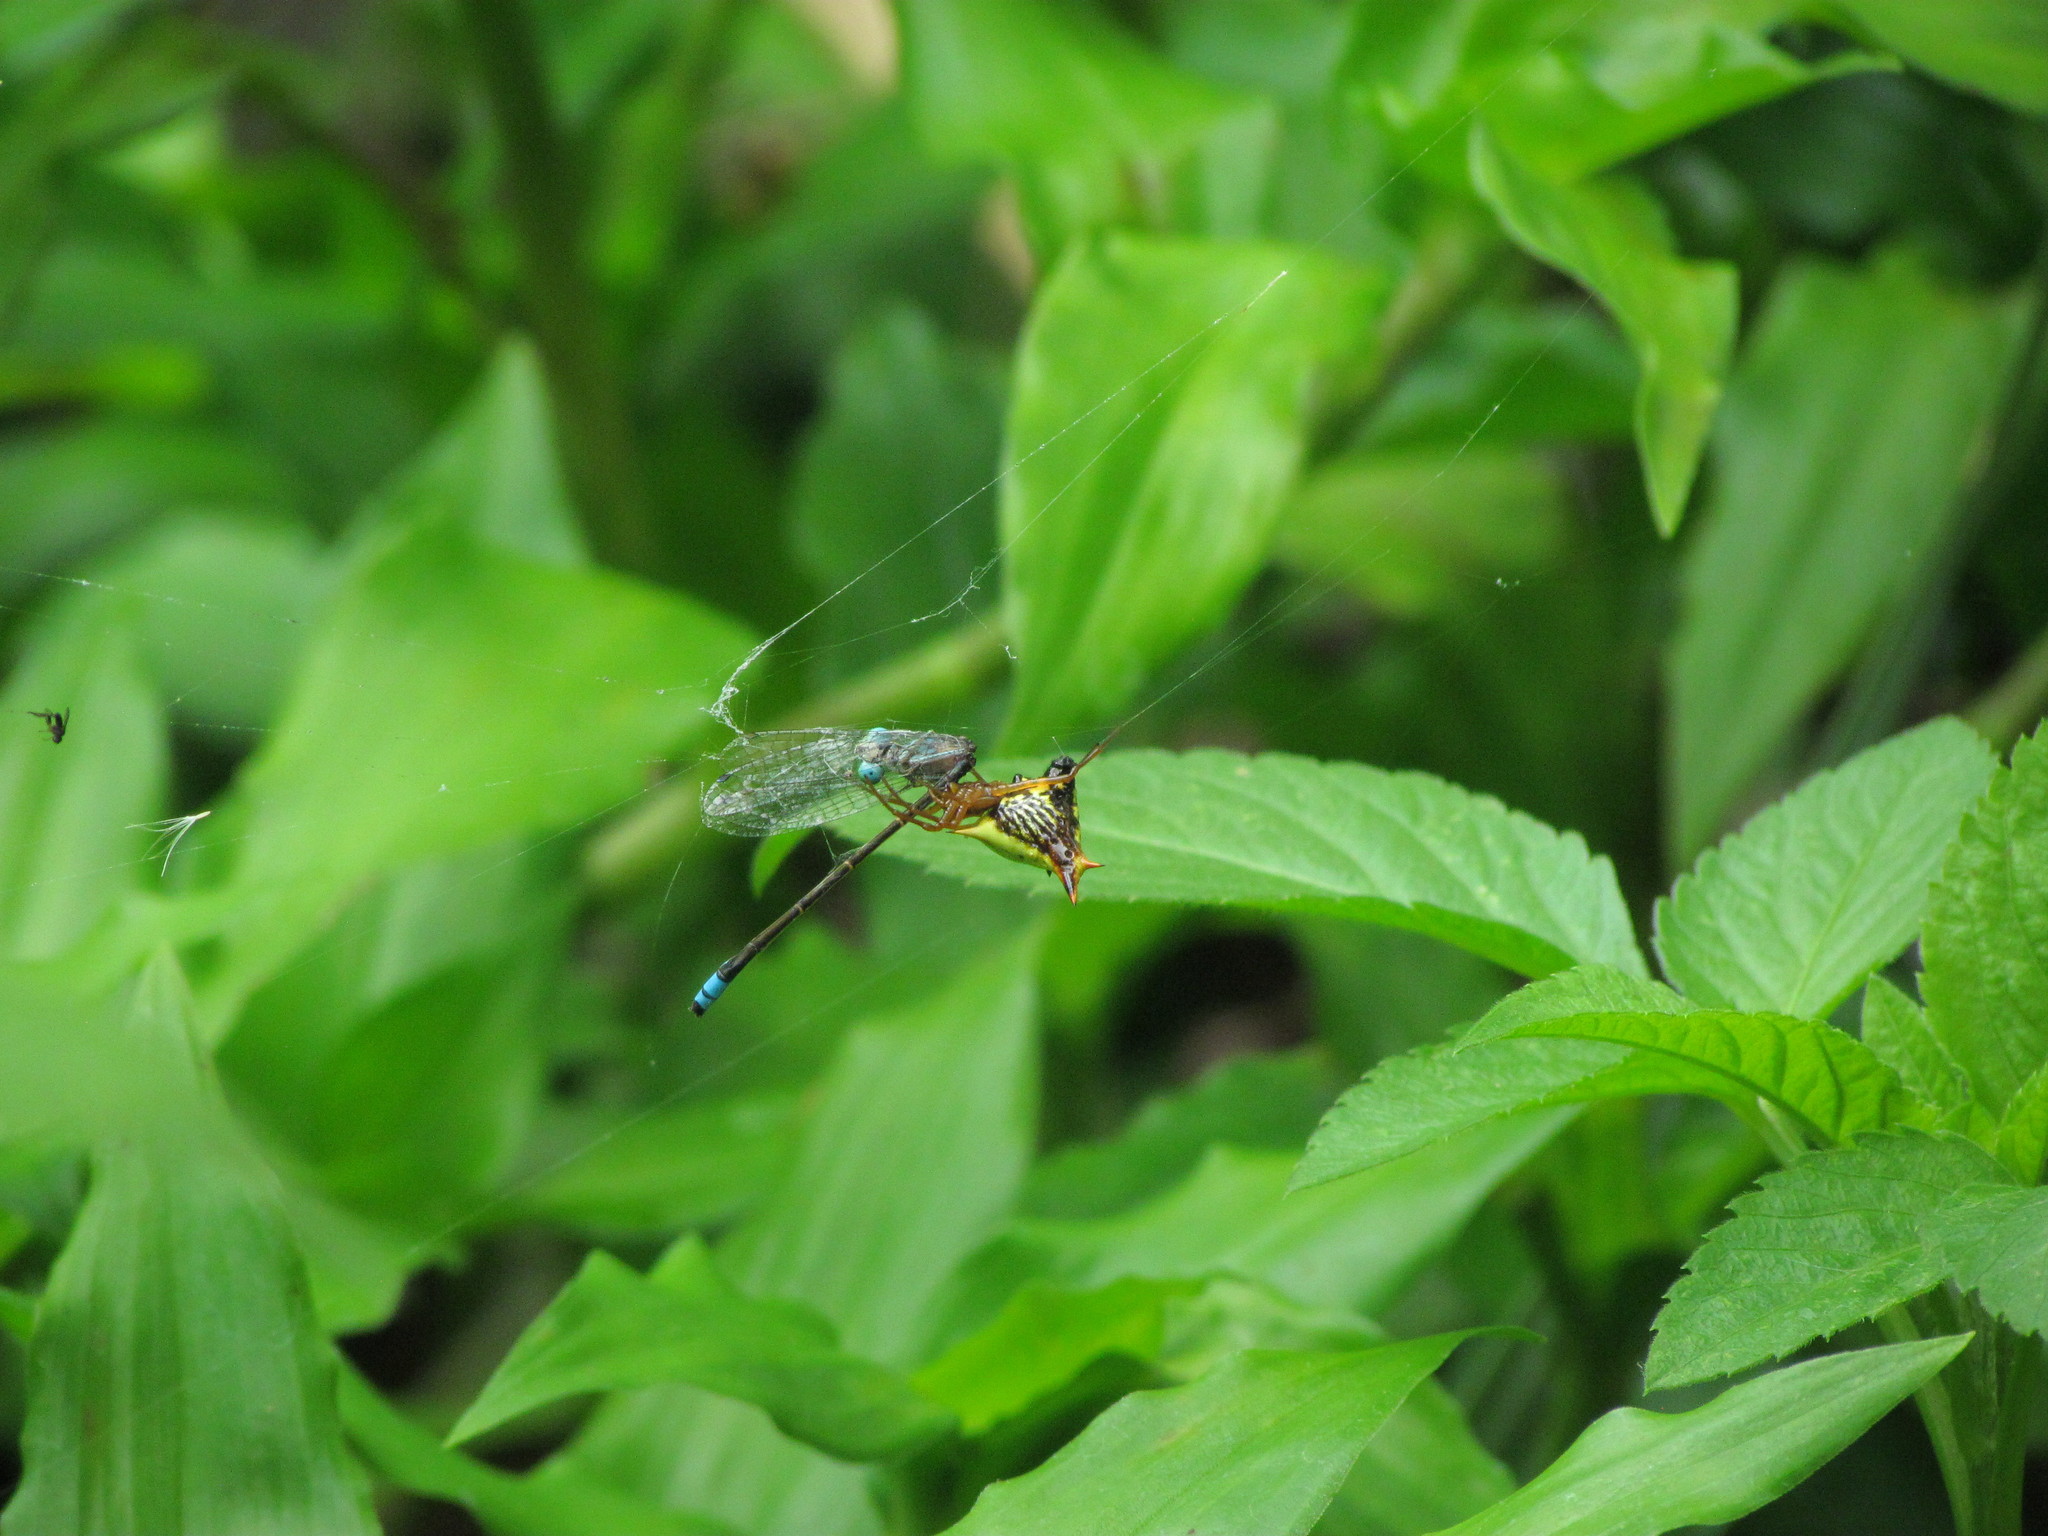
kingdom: Animalia
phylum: Arthropoda
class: Arachnida
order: Araneae
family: Araneidae
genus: Micrathena
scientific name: Micrathena furcata
